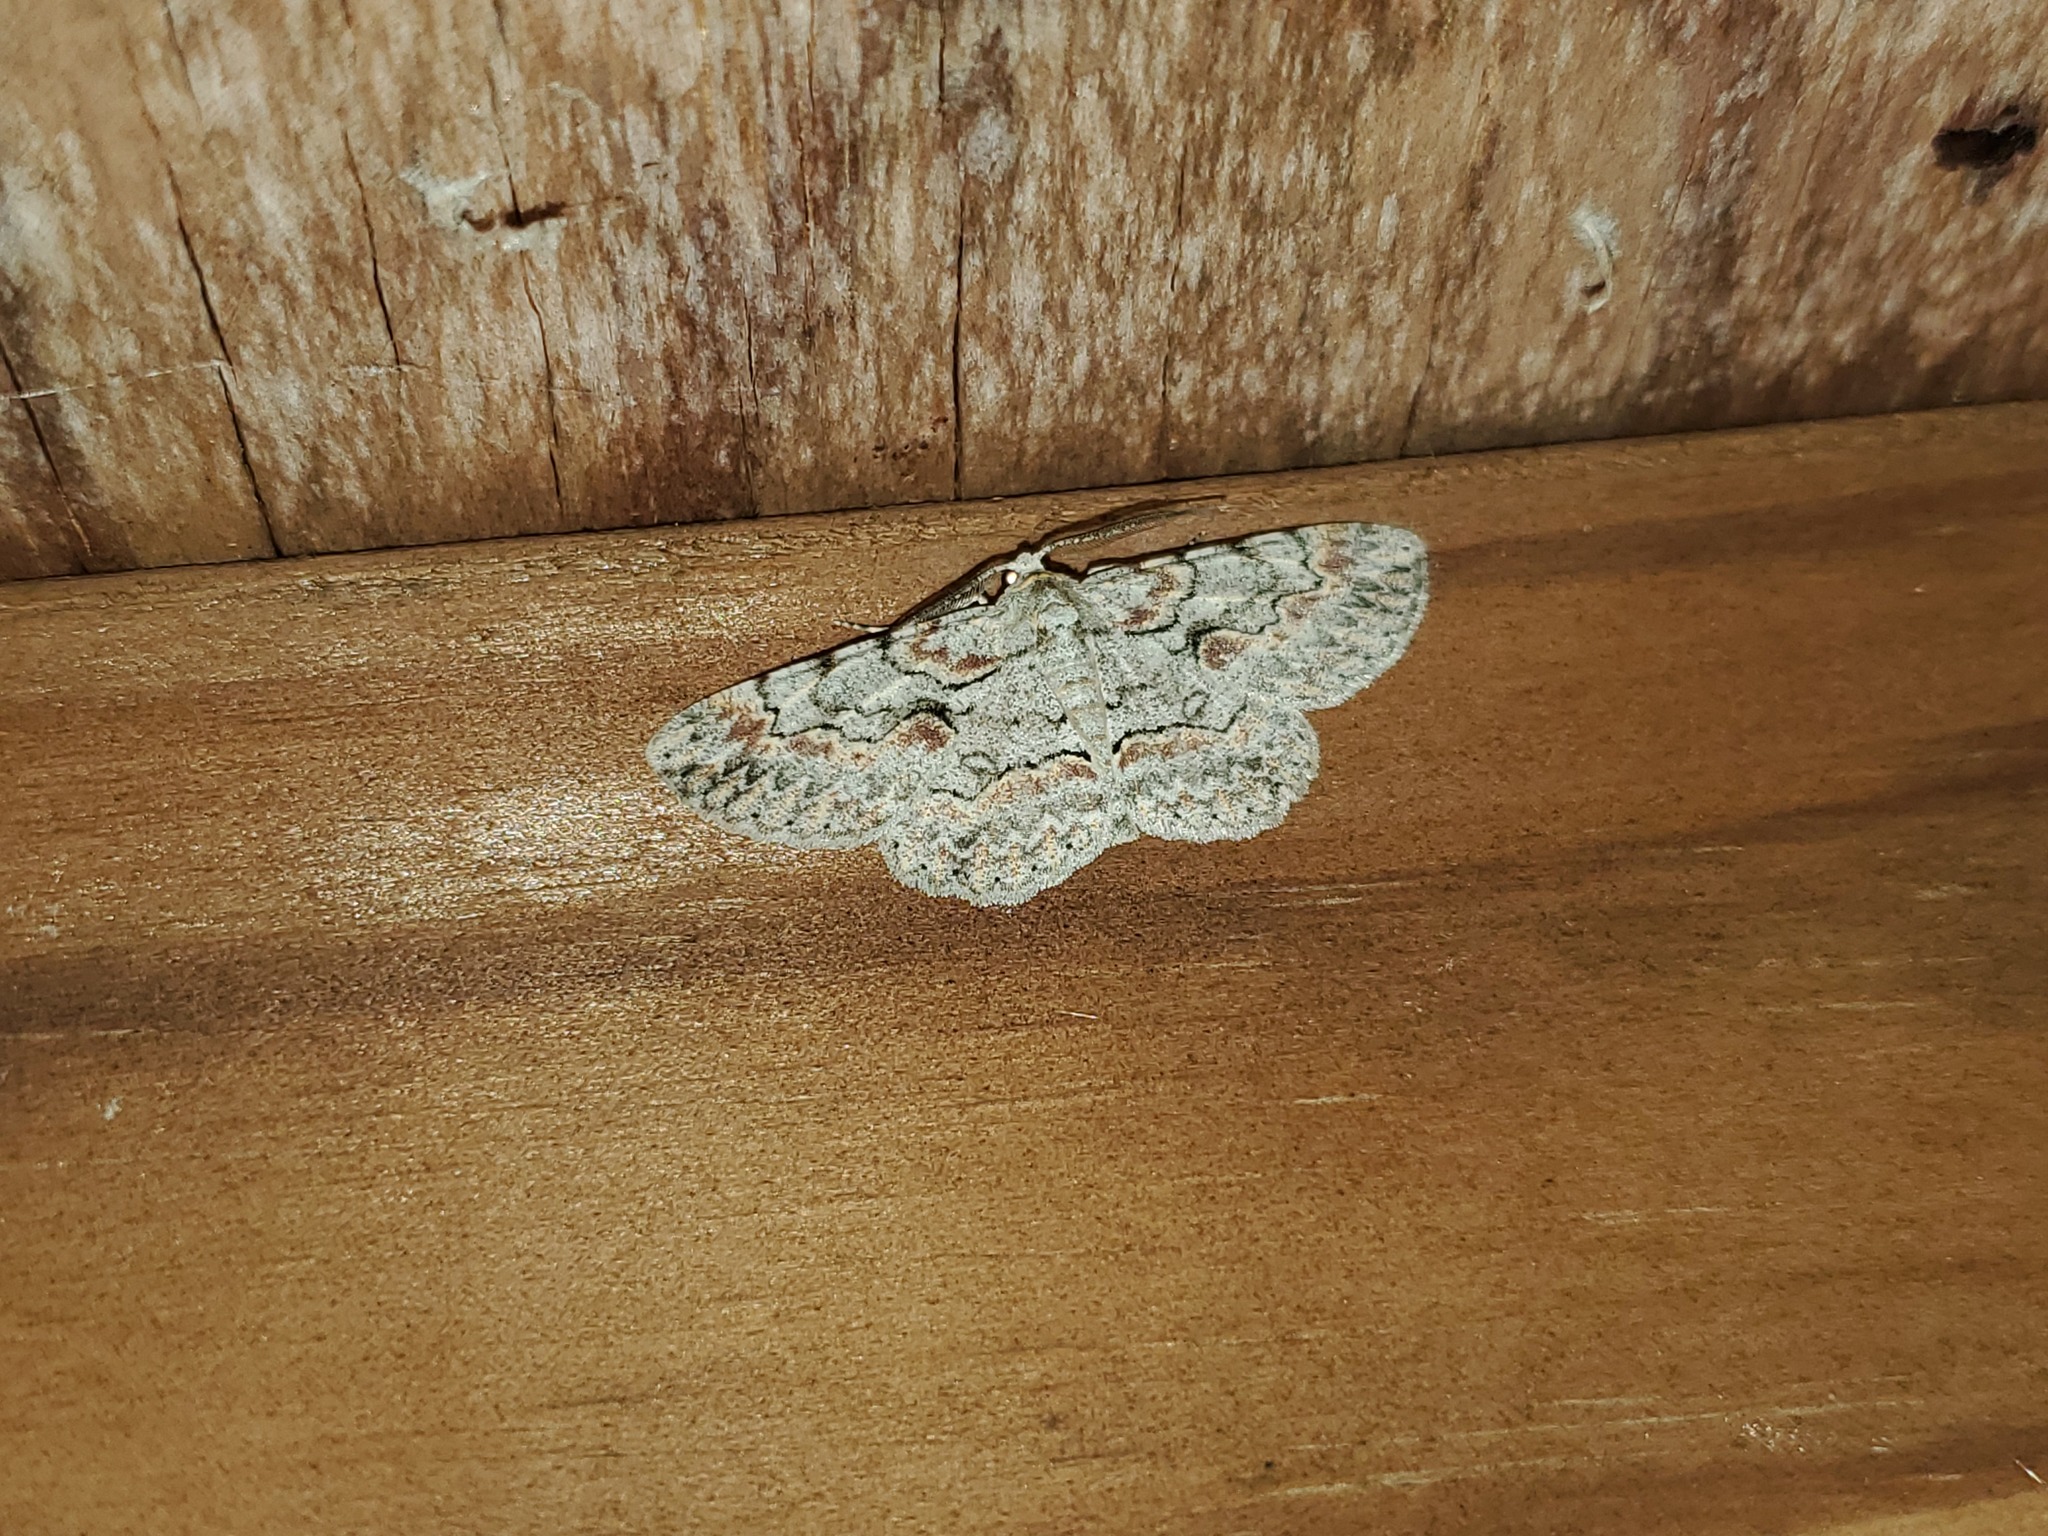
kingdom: Animalia
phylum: Arthropoda
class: Insecta
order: Lepidoptera
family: Geometridae
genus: Iridopsis
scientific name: Iridopsis defectaria
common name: Brown-shaded gray
